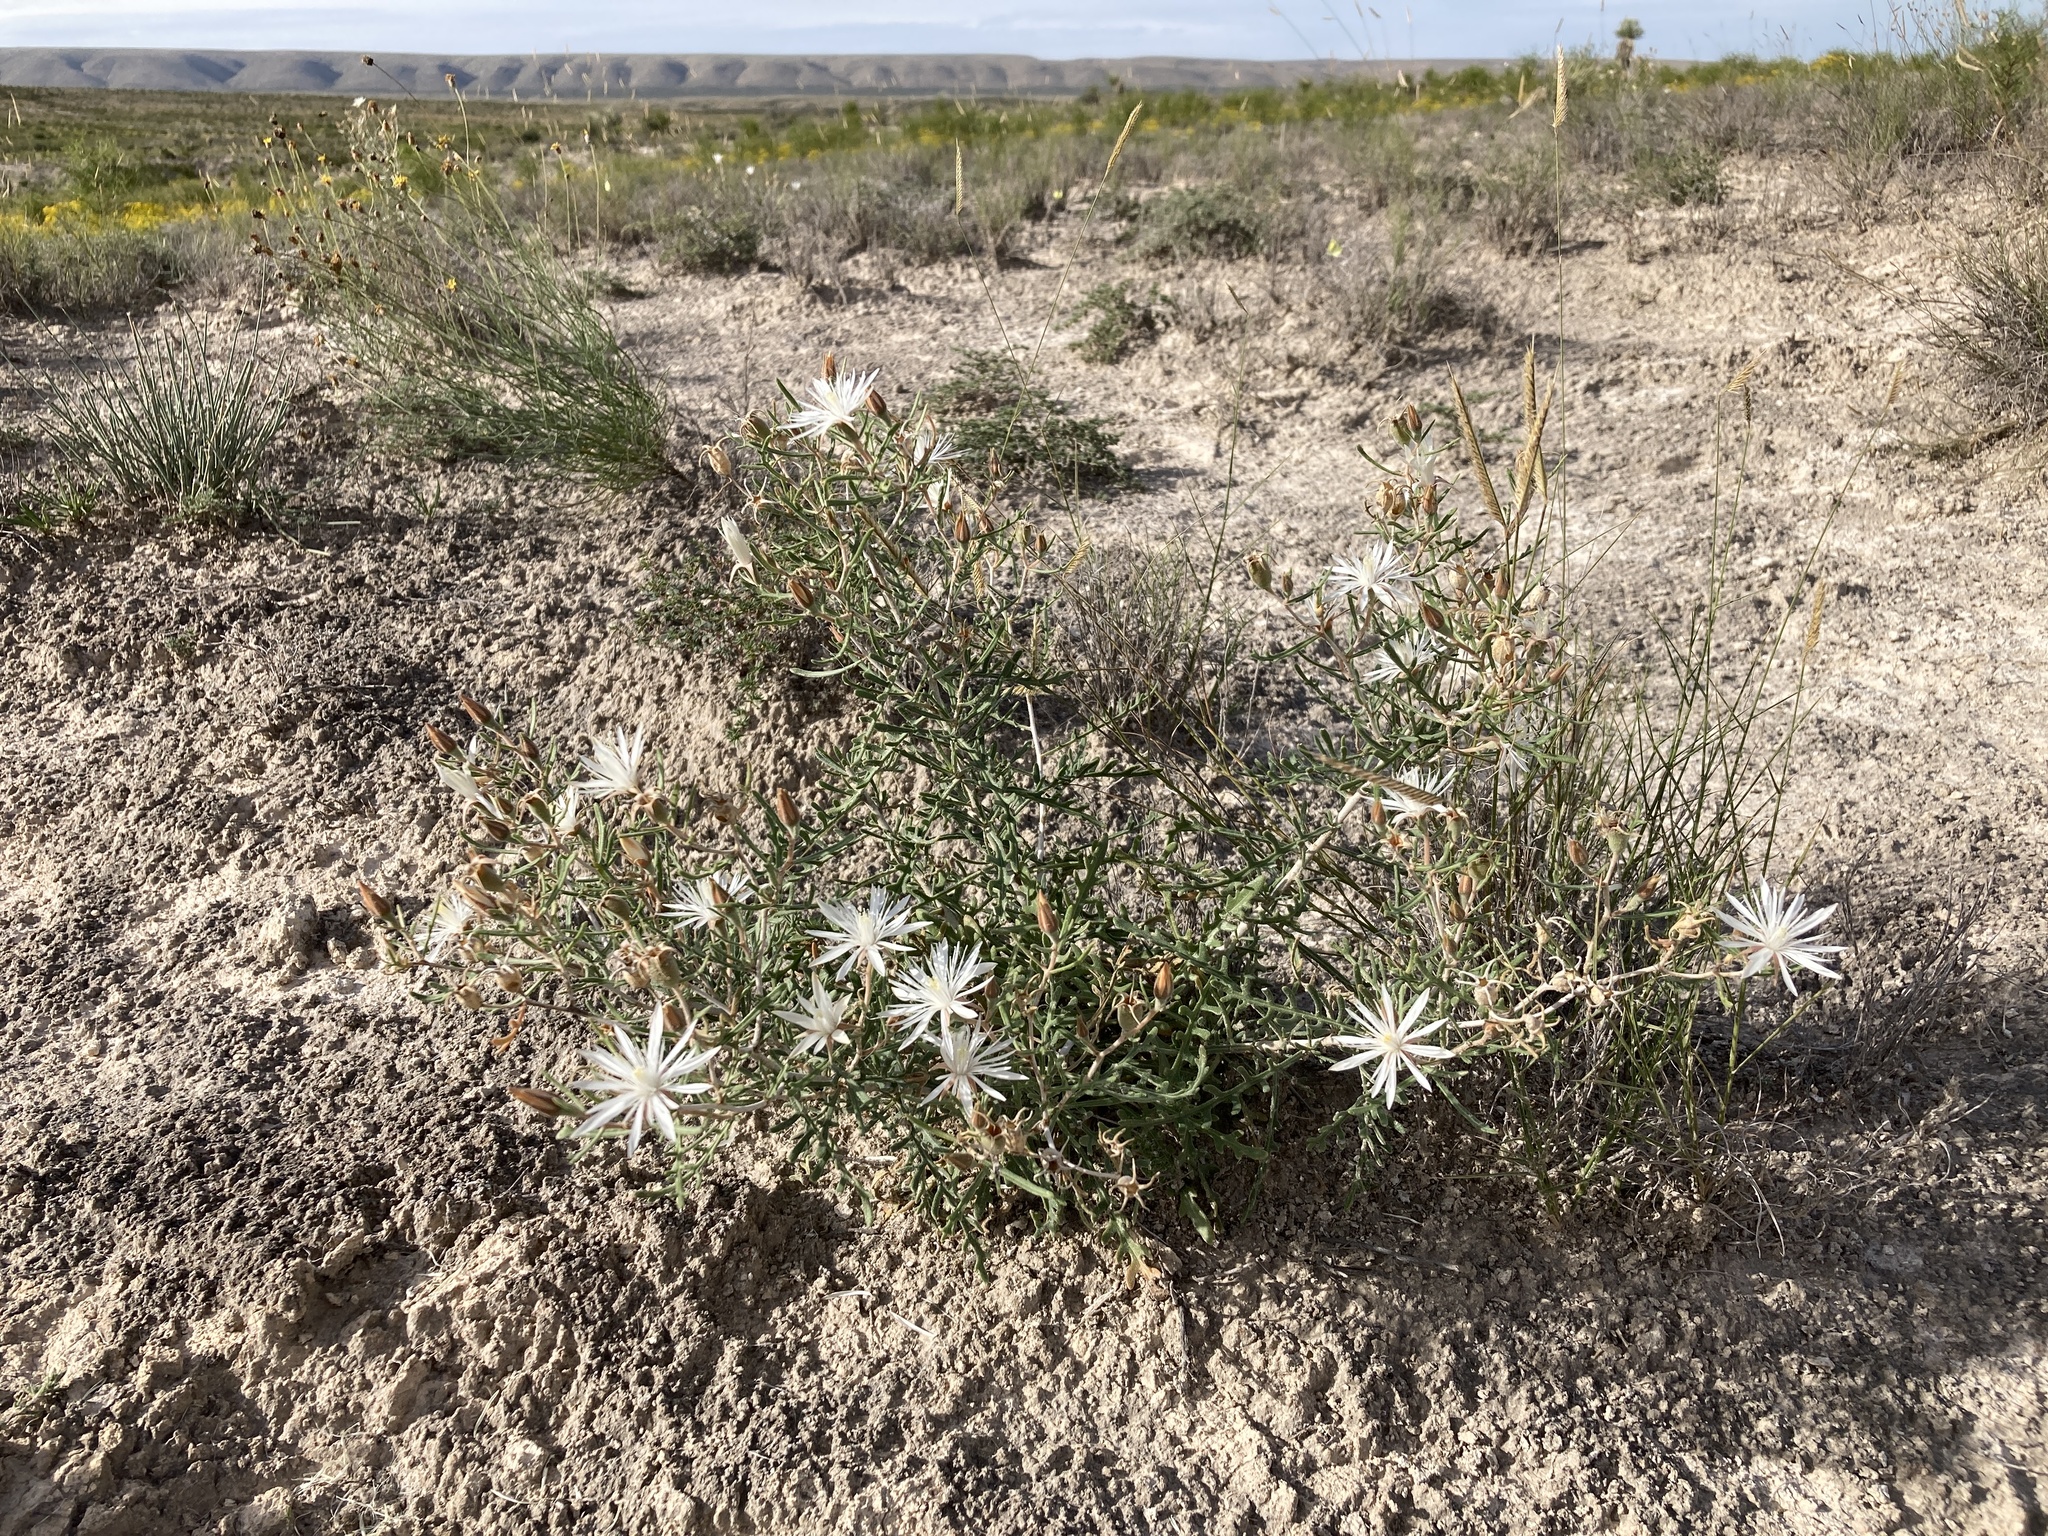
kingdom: Plantae
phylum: Tracheophyta
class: Magnoliopsida
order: Cornales
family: Loasaceae
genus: Mentzelia
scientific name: Mentzelia humilis
